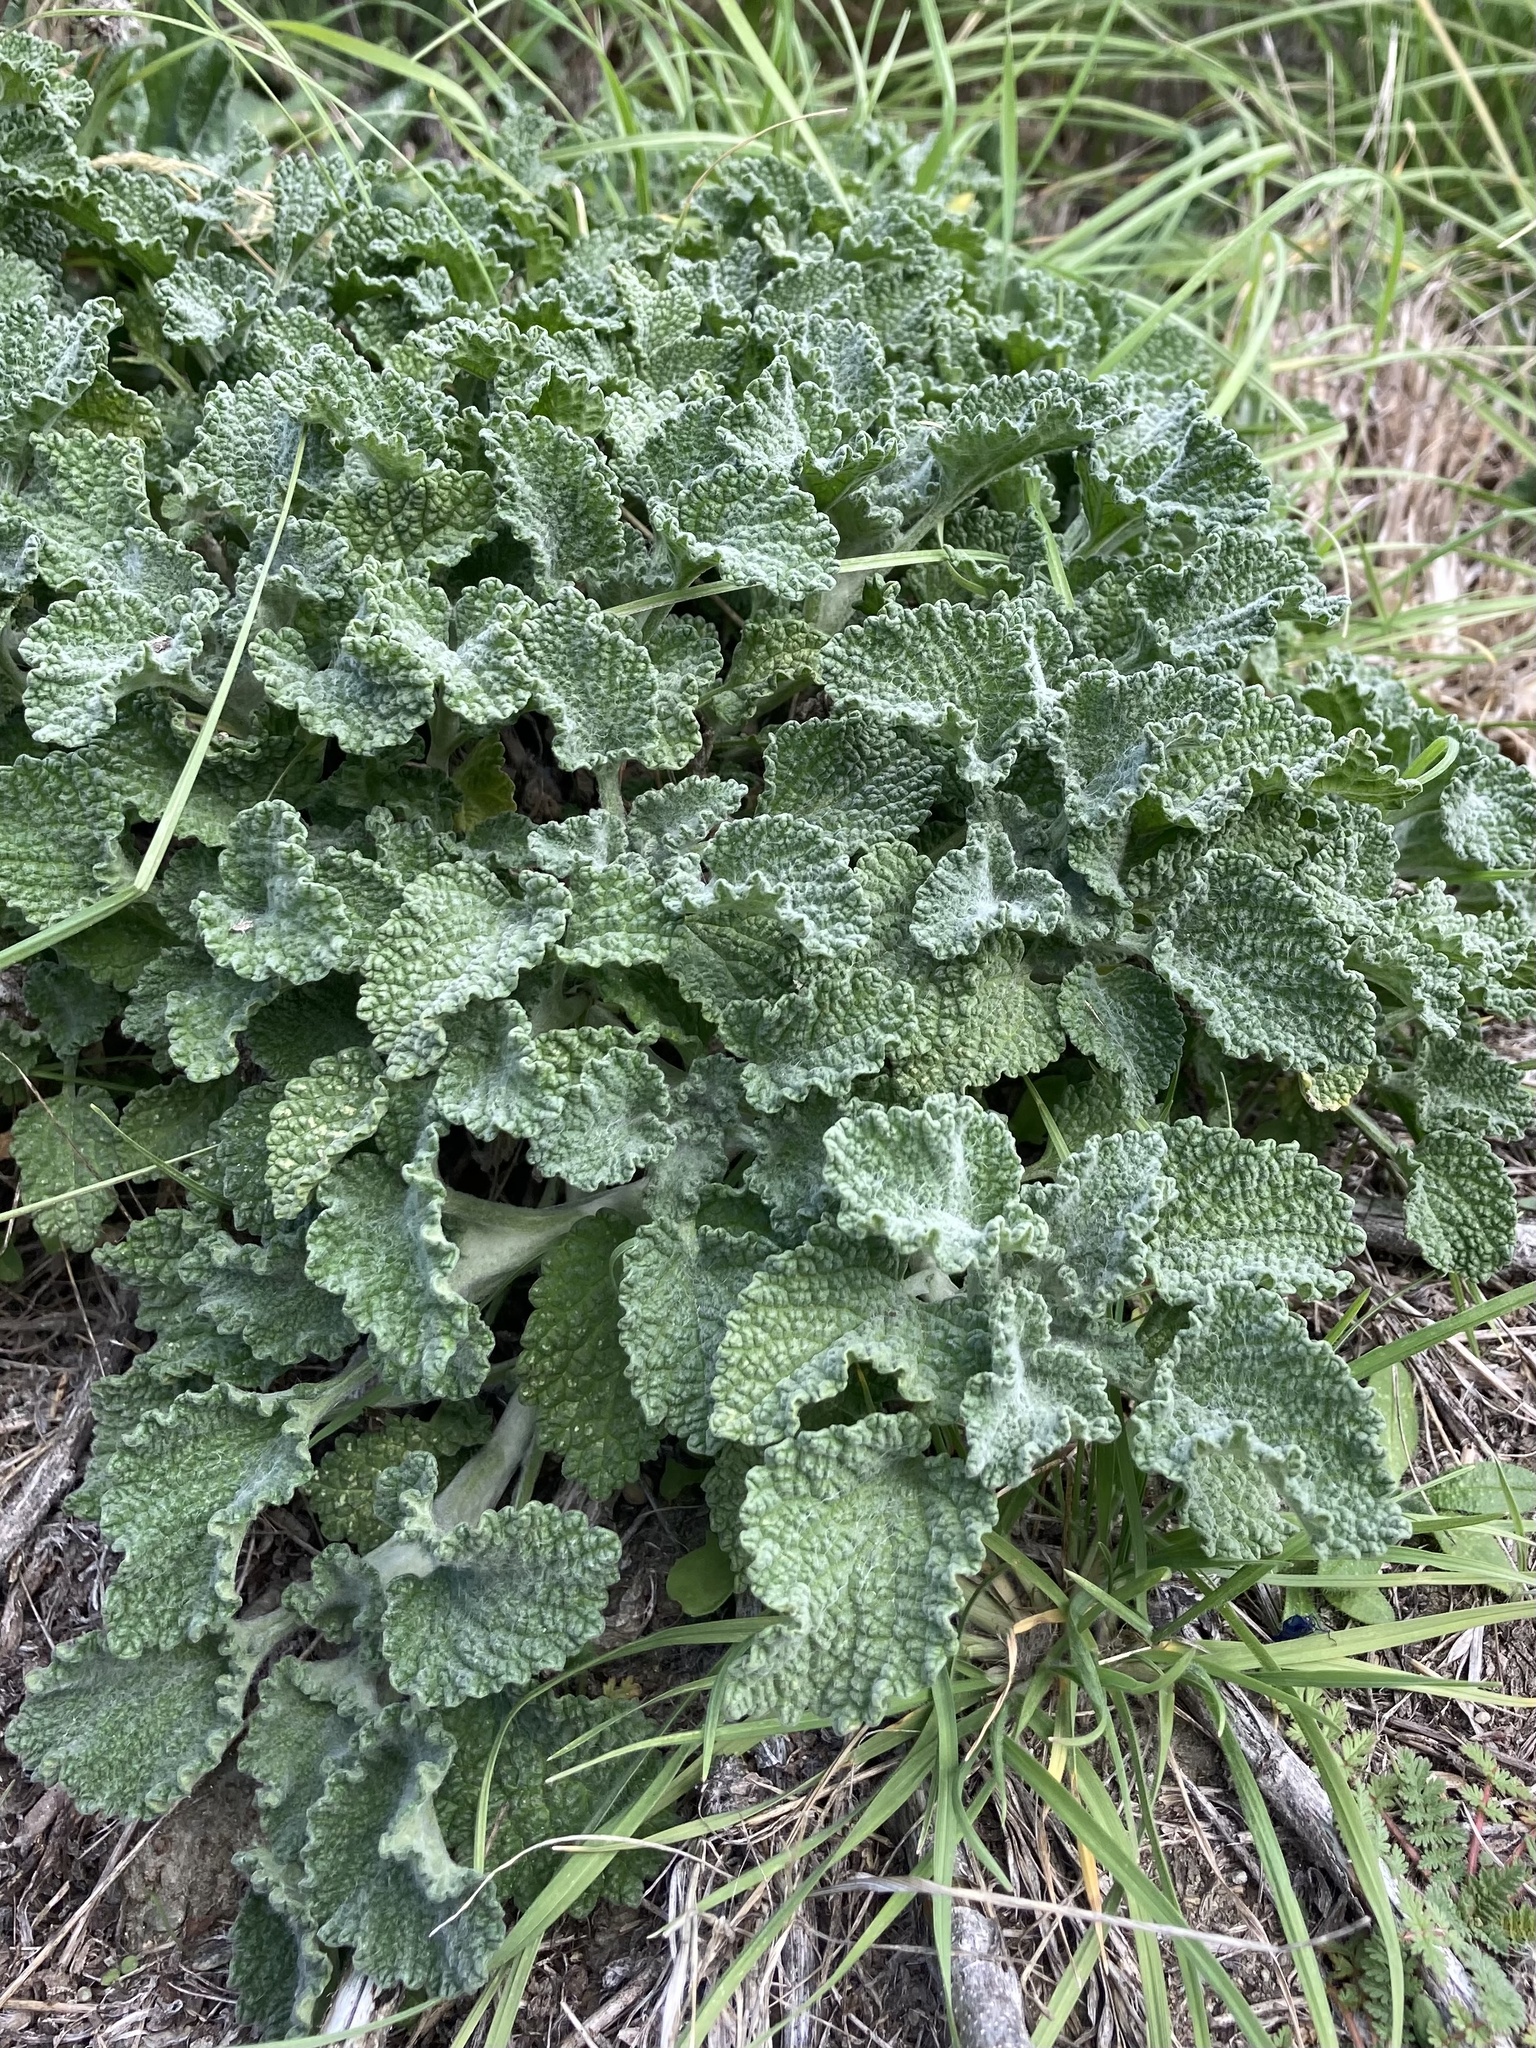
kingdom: Plantae
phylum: Tracheophyta
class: Magnoliopsida
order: Lamiales
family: Lamiaceae
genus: Marrubium
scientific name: Marrubium vulgare
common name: Horehound
